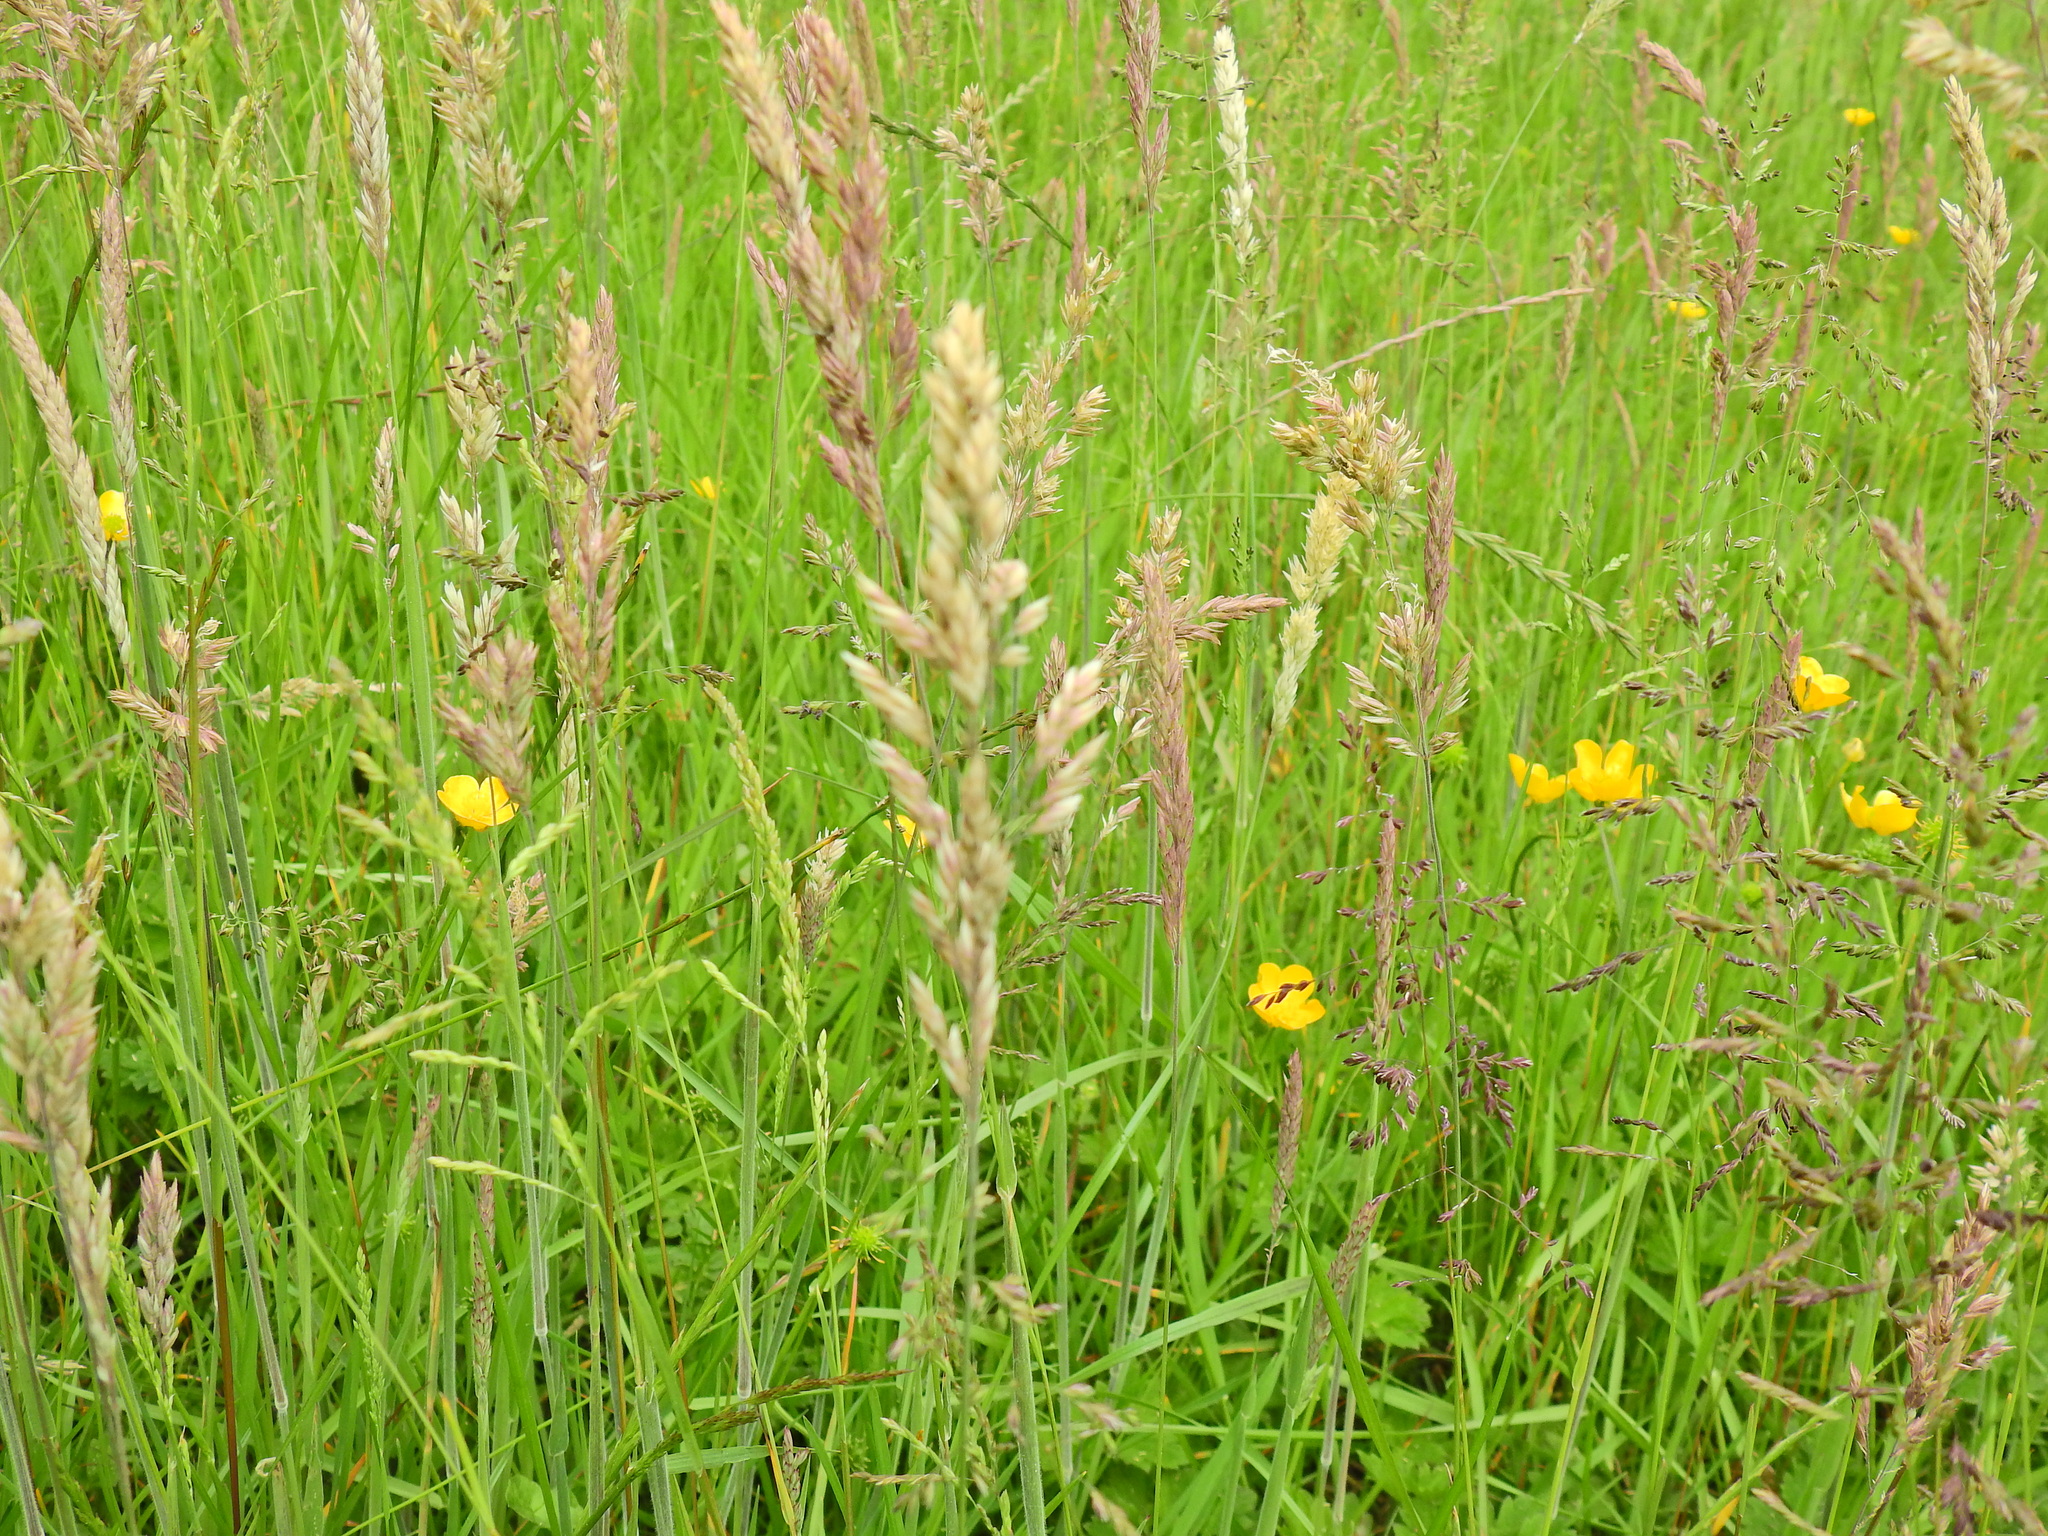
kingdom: Plantae
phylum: Tracheophyta
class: Liliopsida
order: Poales
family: Poaceae
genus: Holcus
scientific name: Holcus lanatus
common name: Yorkshire-fog
